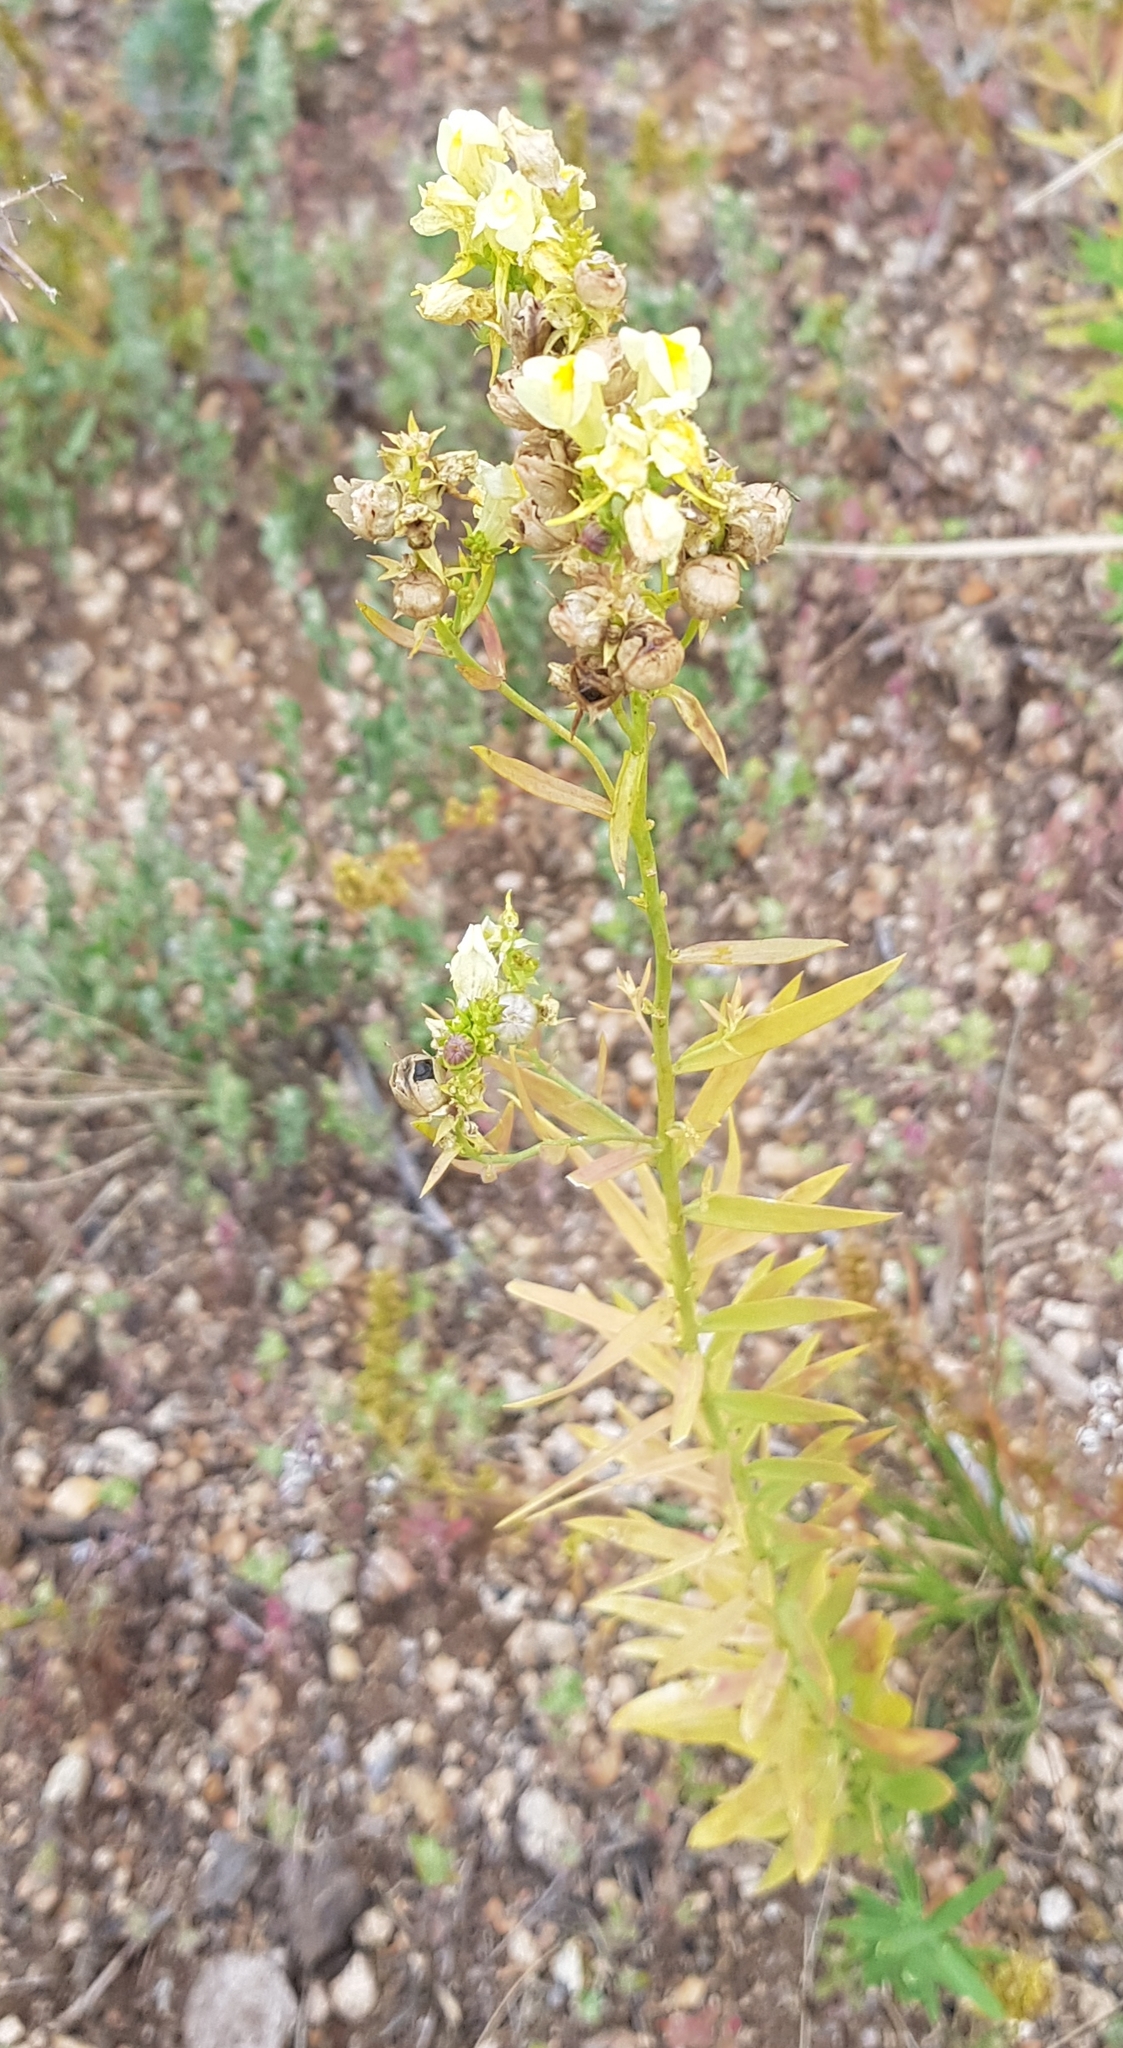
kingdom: Plantae
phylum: Tracheophyta
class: Magnoliopsida
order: Lamiales
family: Plantaginaceae
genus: Linaria
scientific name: Linaria acutiloba
